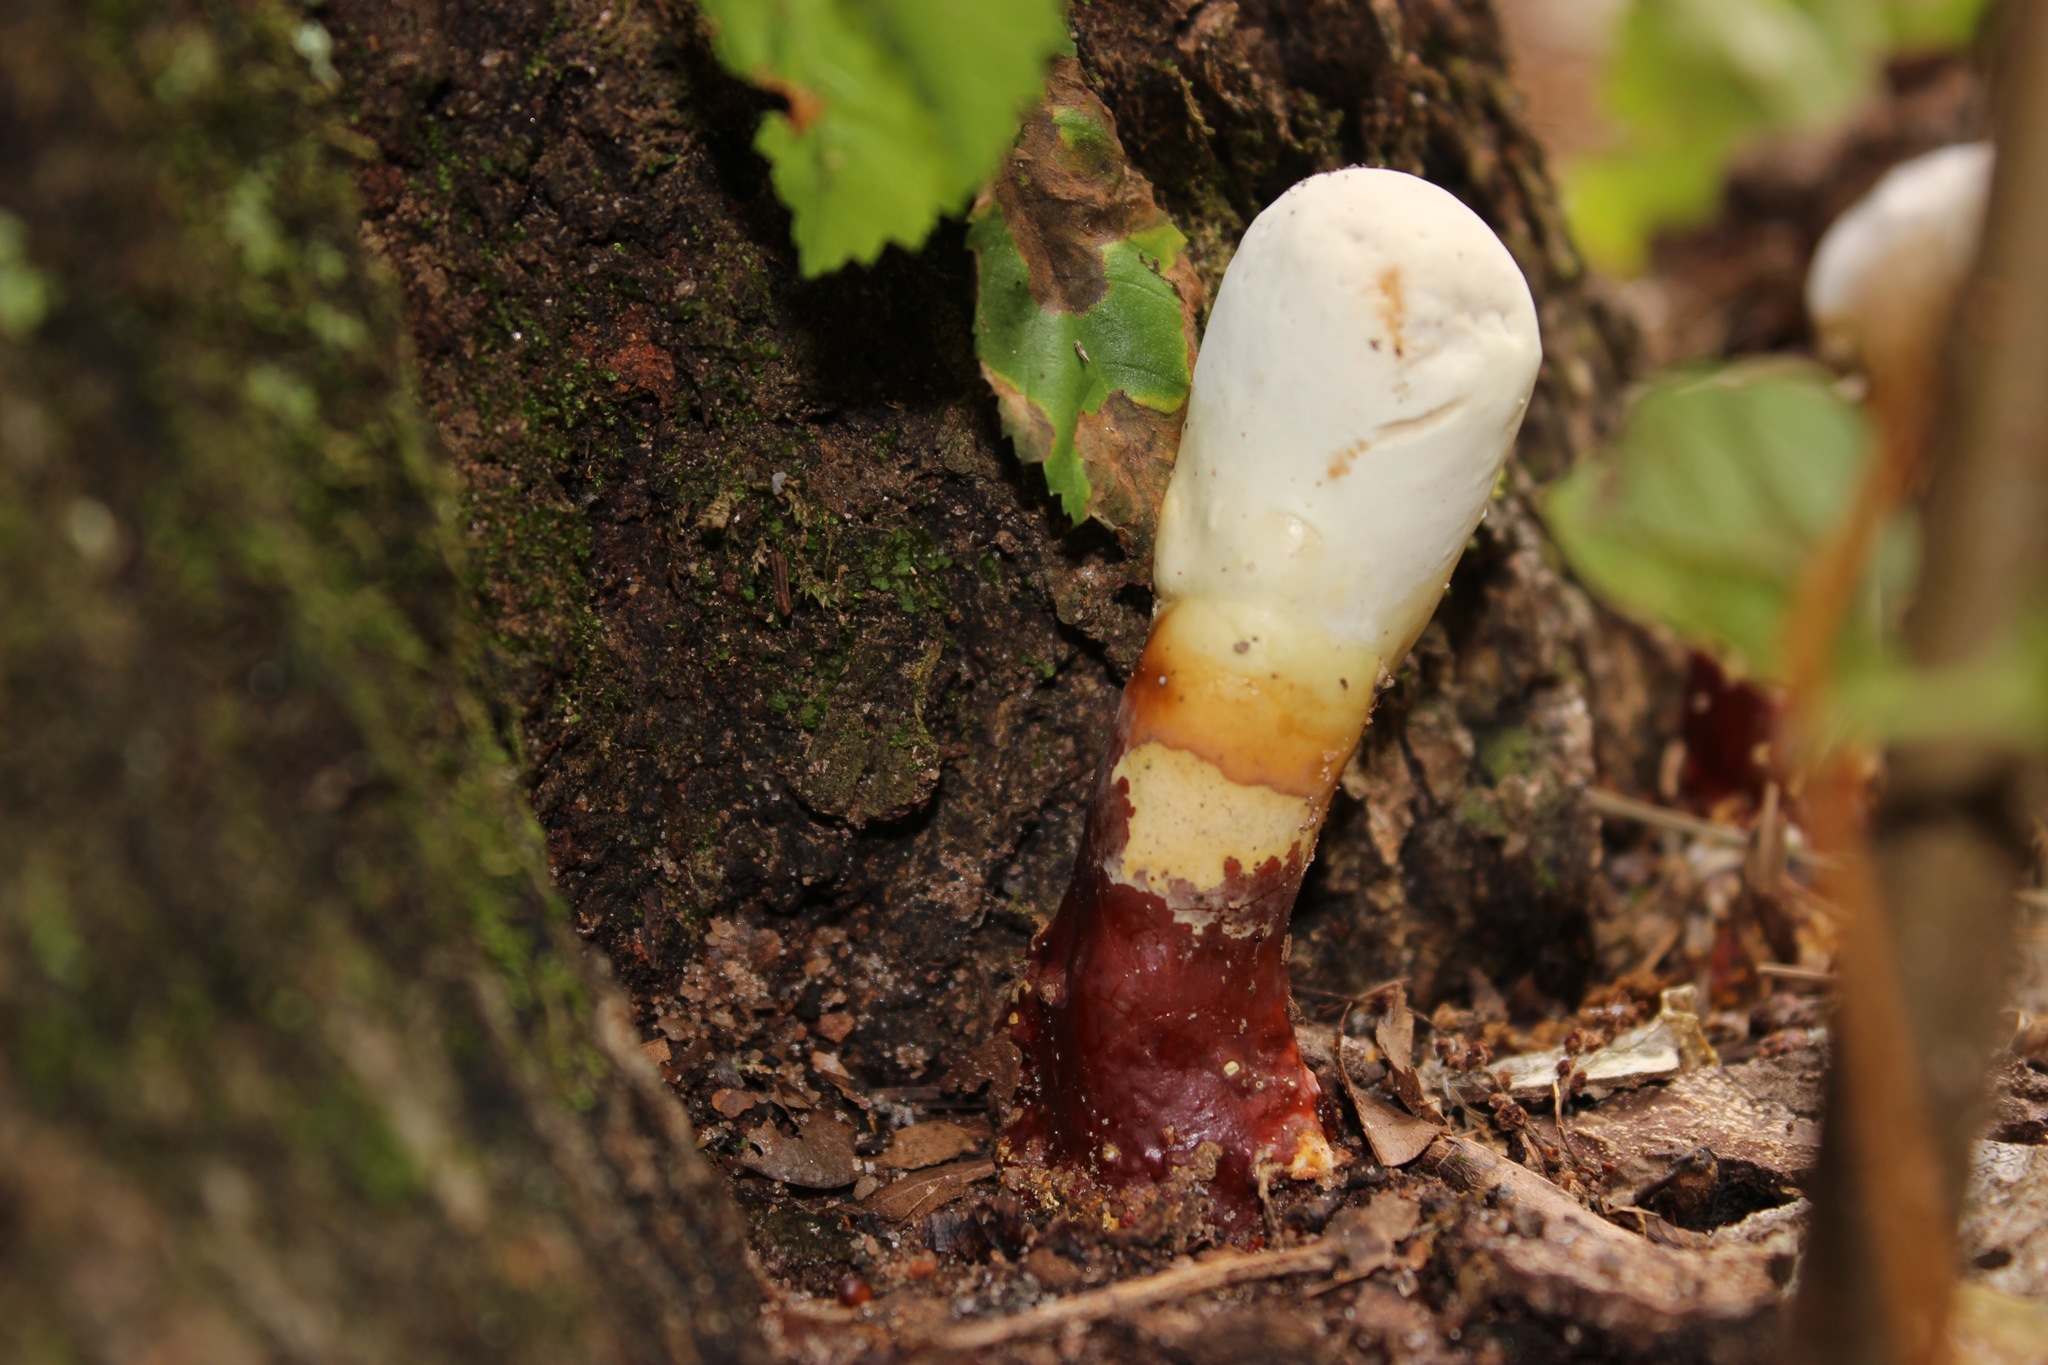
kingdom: Fungi
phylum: Basidiomycota
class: Agaricomycetes
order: Polyporales
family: Polyporaceae
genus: Ganoderma
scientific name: Ganoderma curtisii
